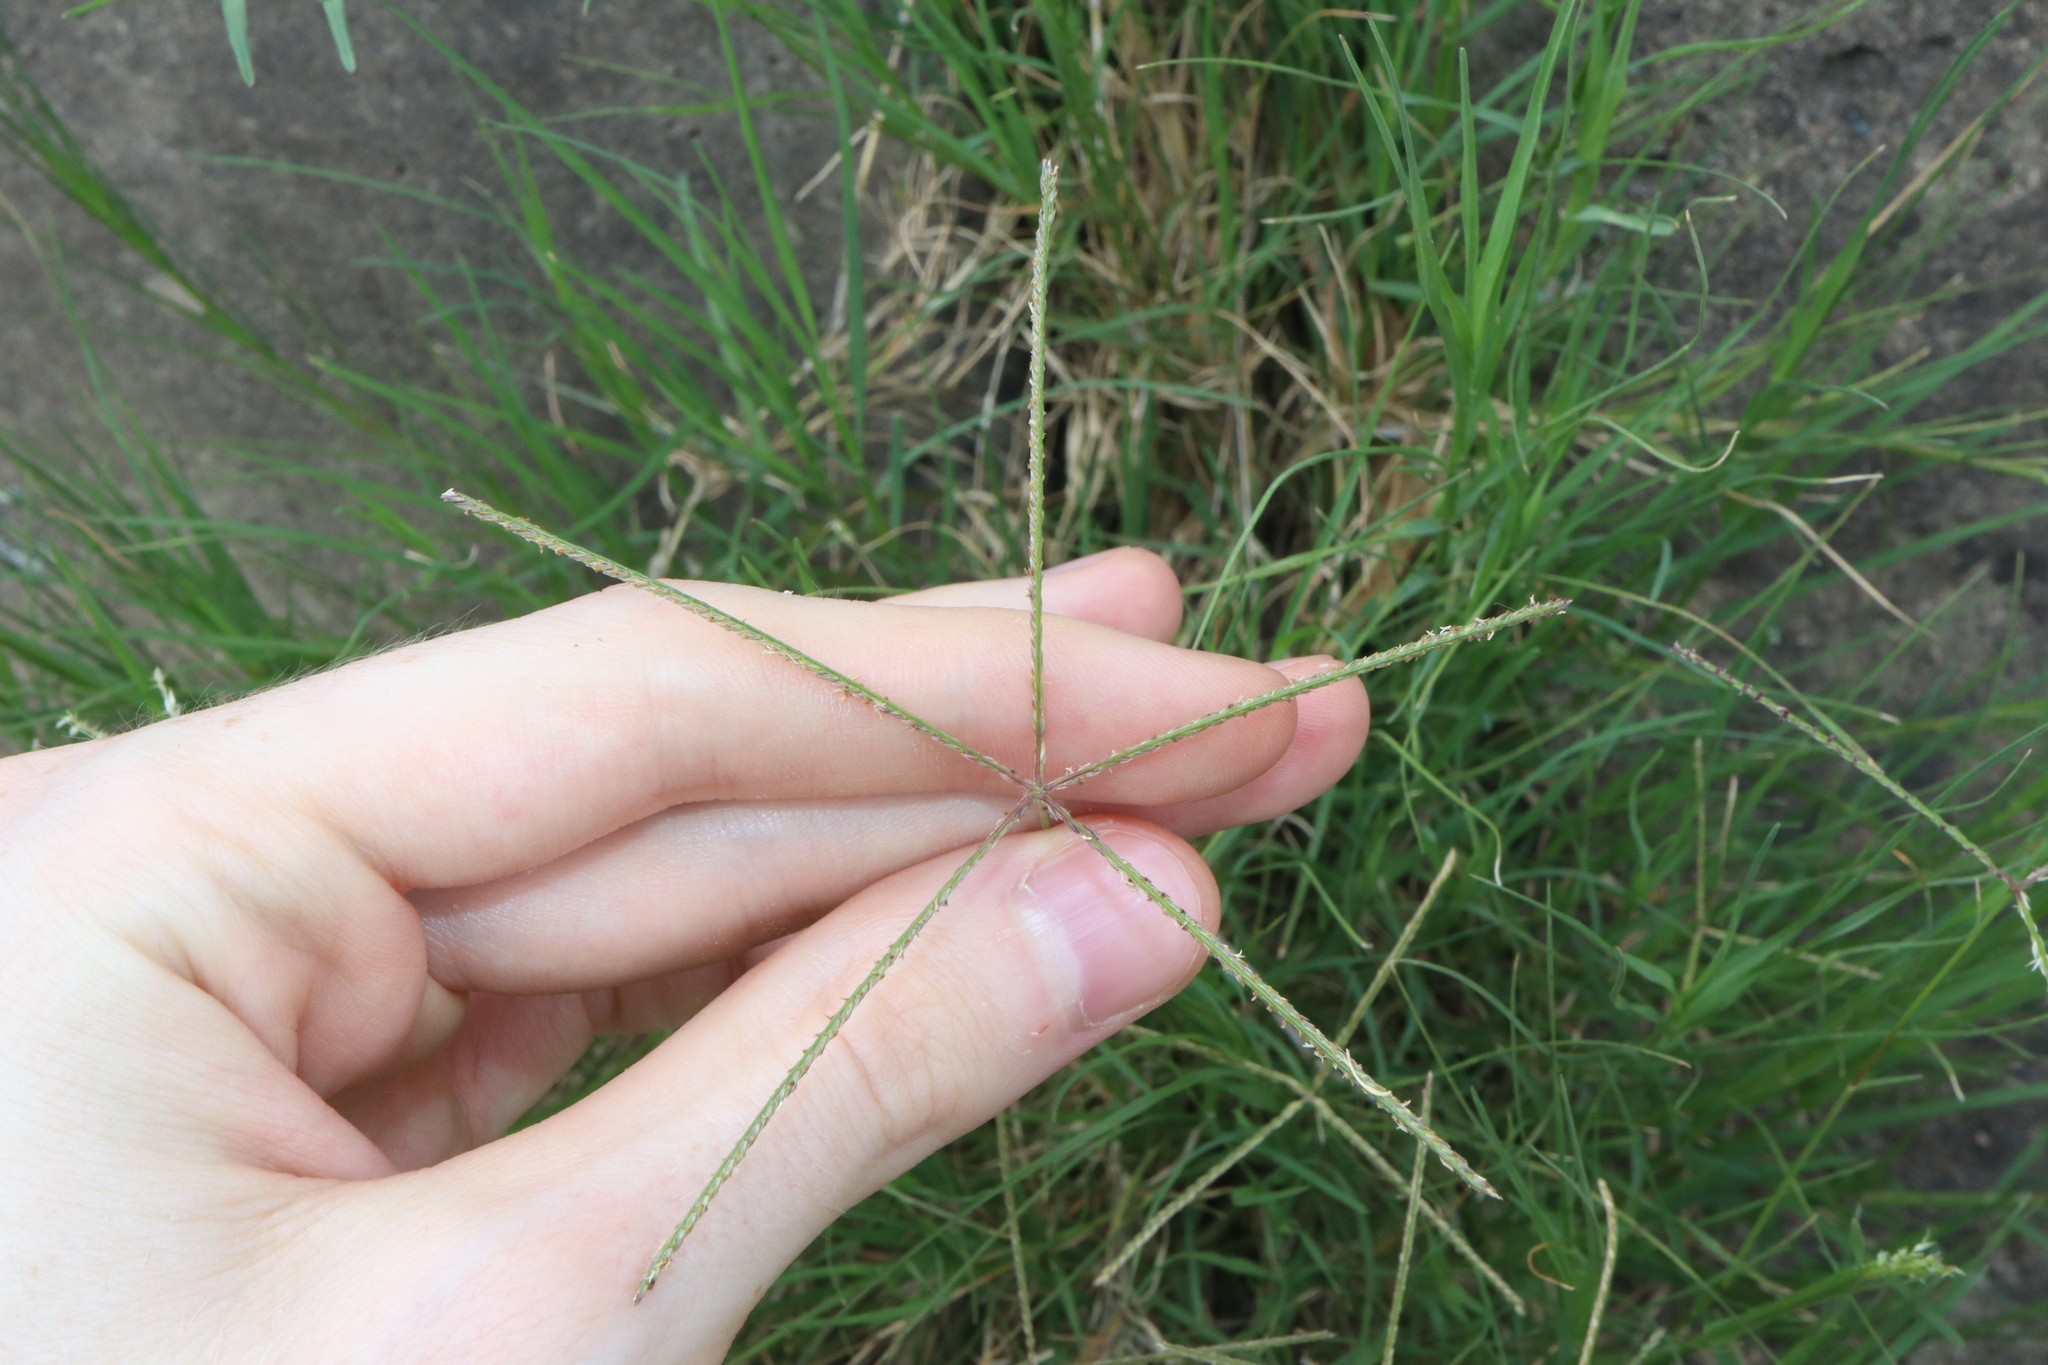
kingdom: Plantae
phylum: Tracheophyta
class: Liliopsida
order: Poales
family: Poaceae
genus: Cynodon
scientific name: Cynodon dactylon
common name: Bermuda grass
